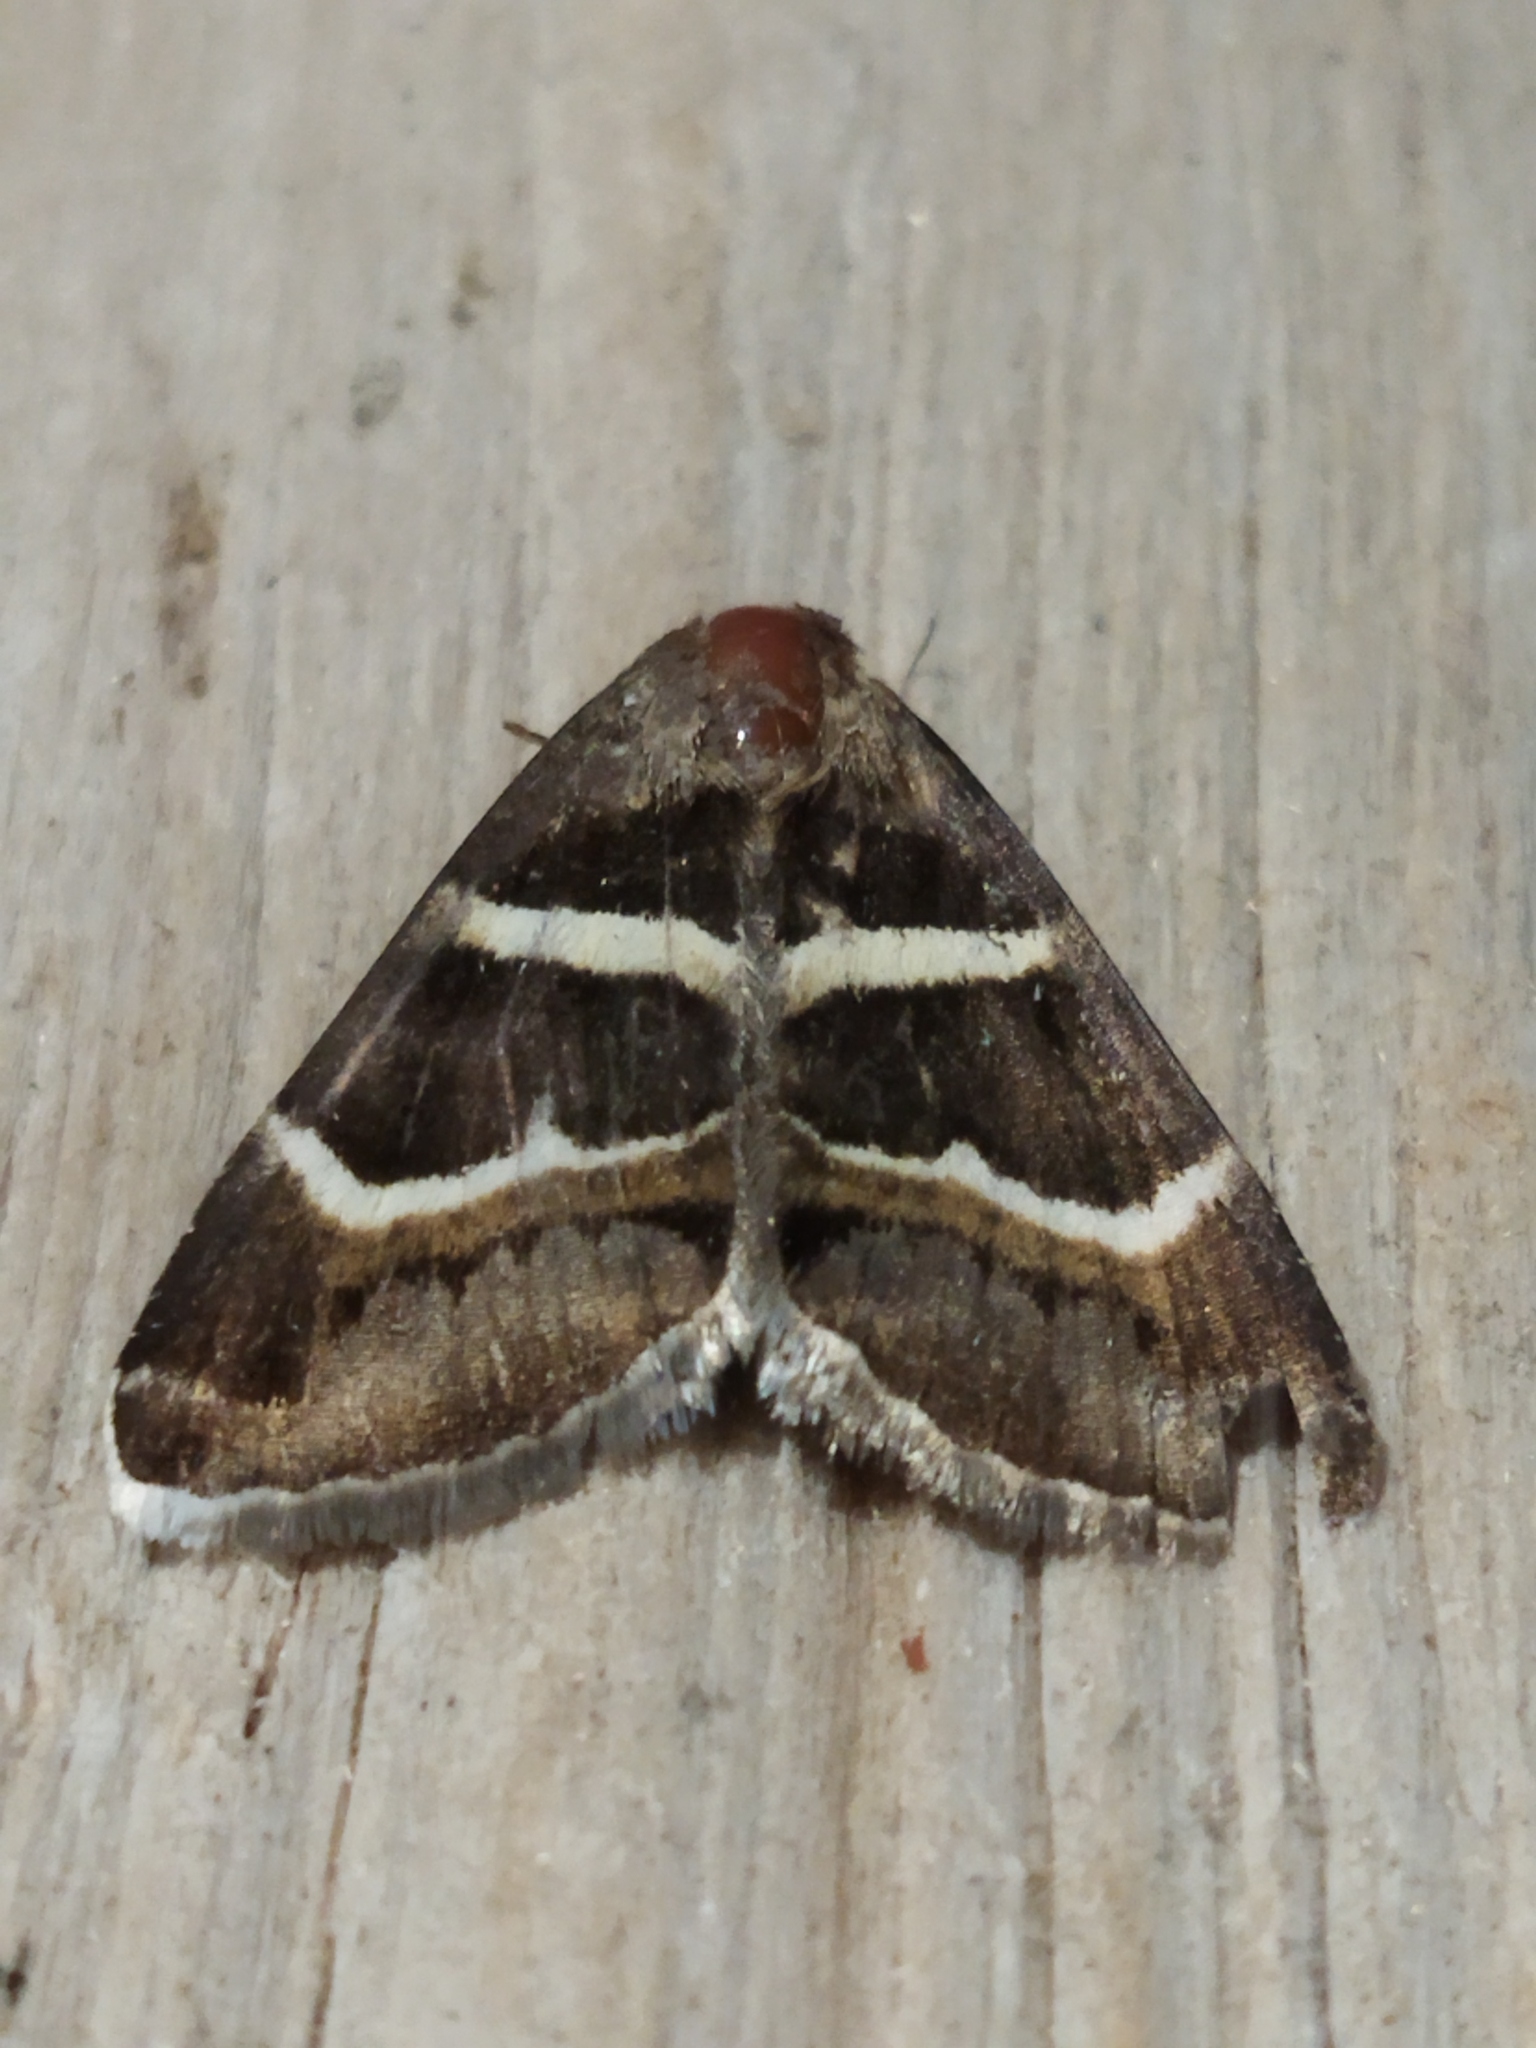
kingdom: Animalia
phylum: Arthropoda
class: Insecta
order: Lepidoptera
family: Erebidae
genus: Grammodes
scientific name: Grammodes stolida
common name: Geometrician
